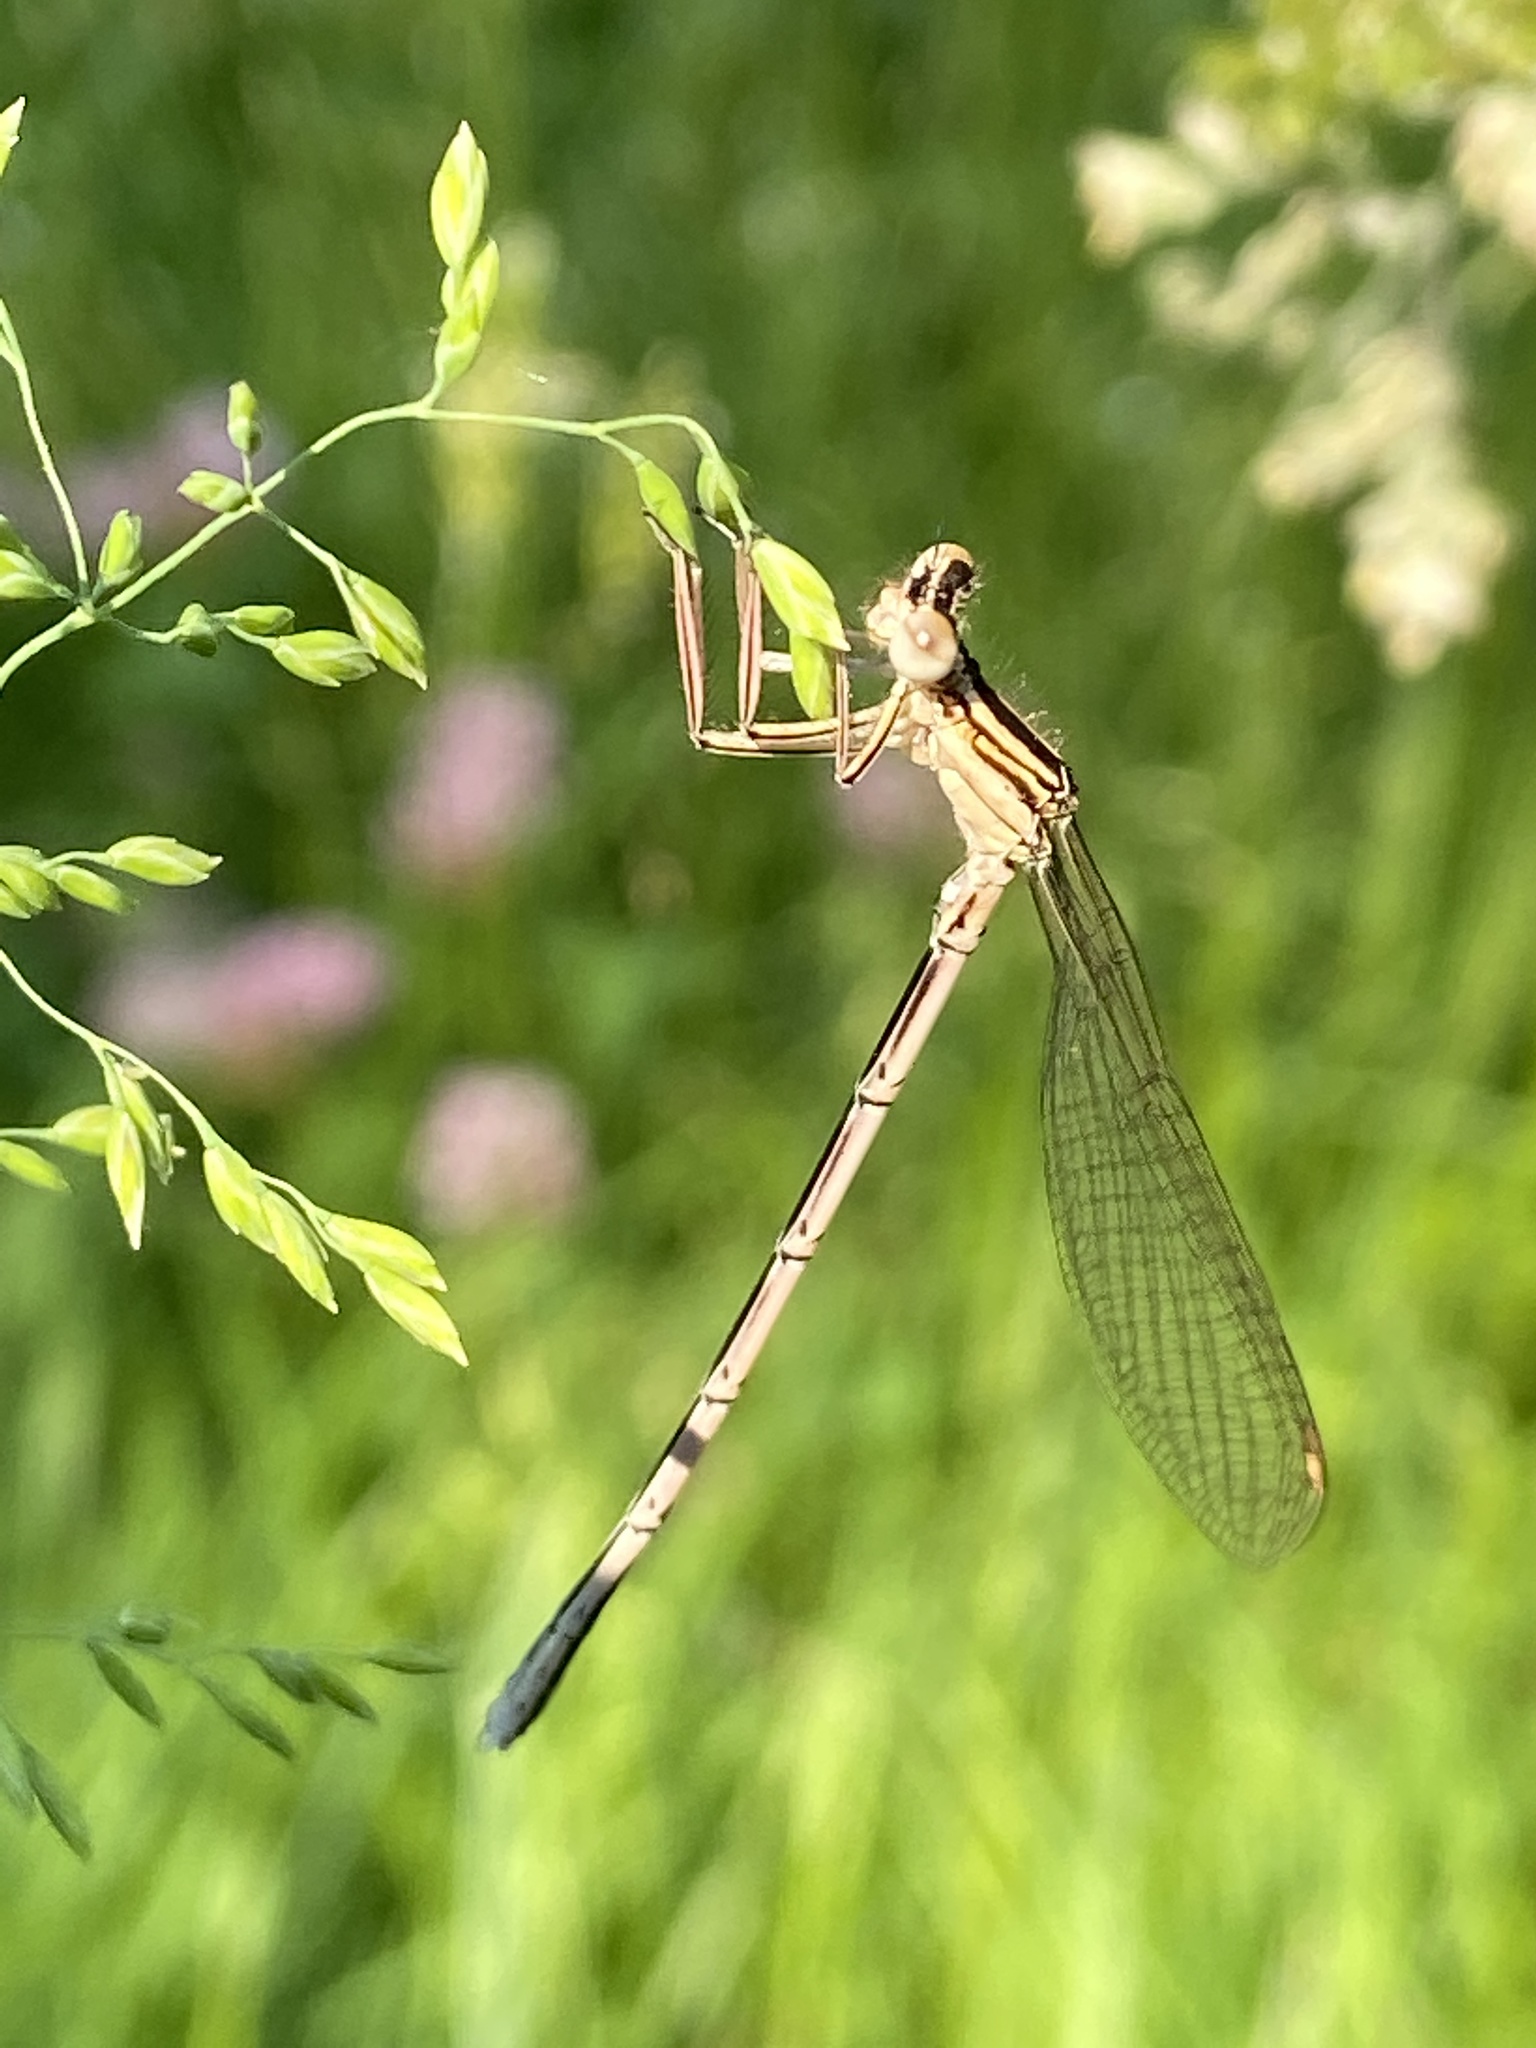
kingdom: Animalia
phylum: Arthropoda
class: Insecta
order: Odonata
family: Platycnemididae
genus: Platycnemis
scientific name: Platycnemis pennipes
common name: White-legged damselfly
